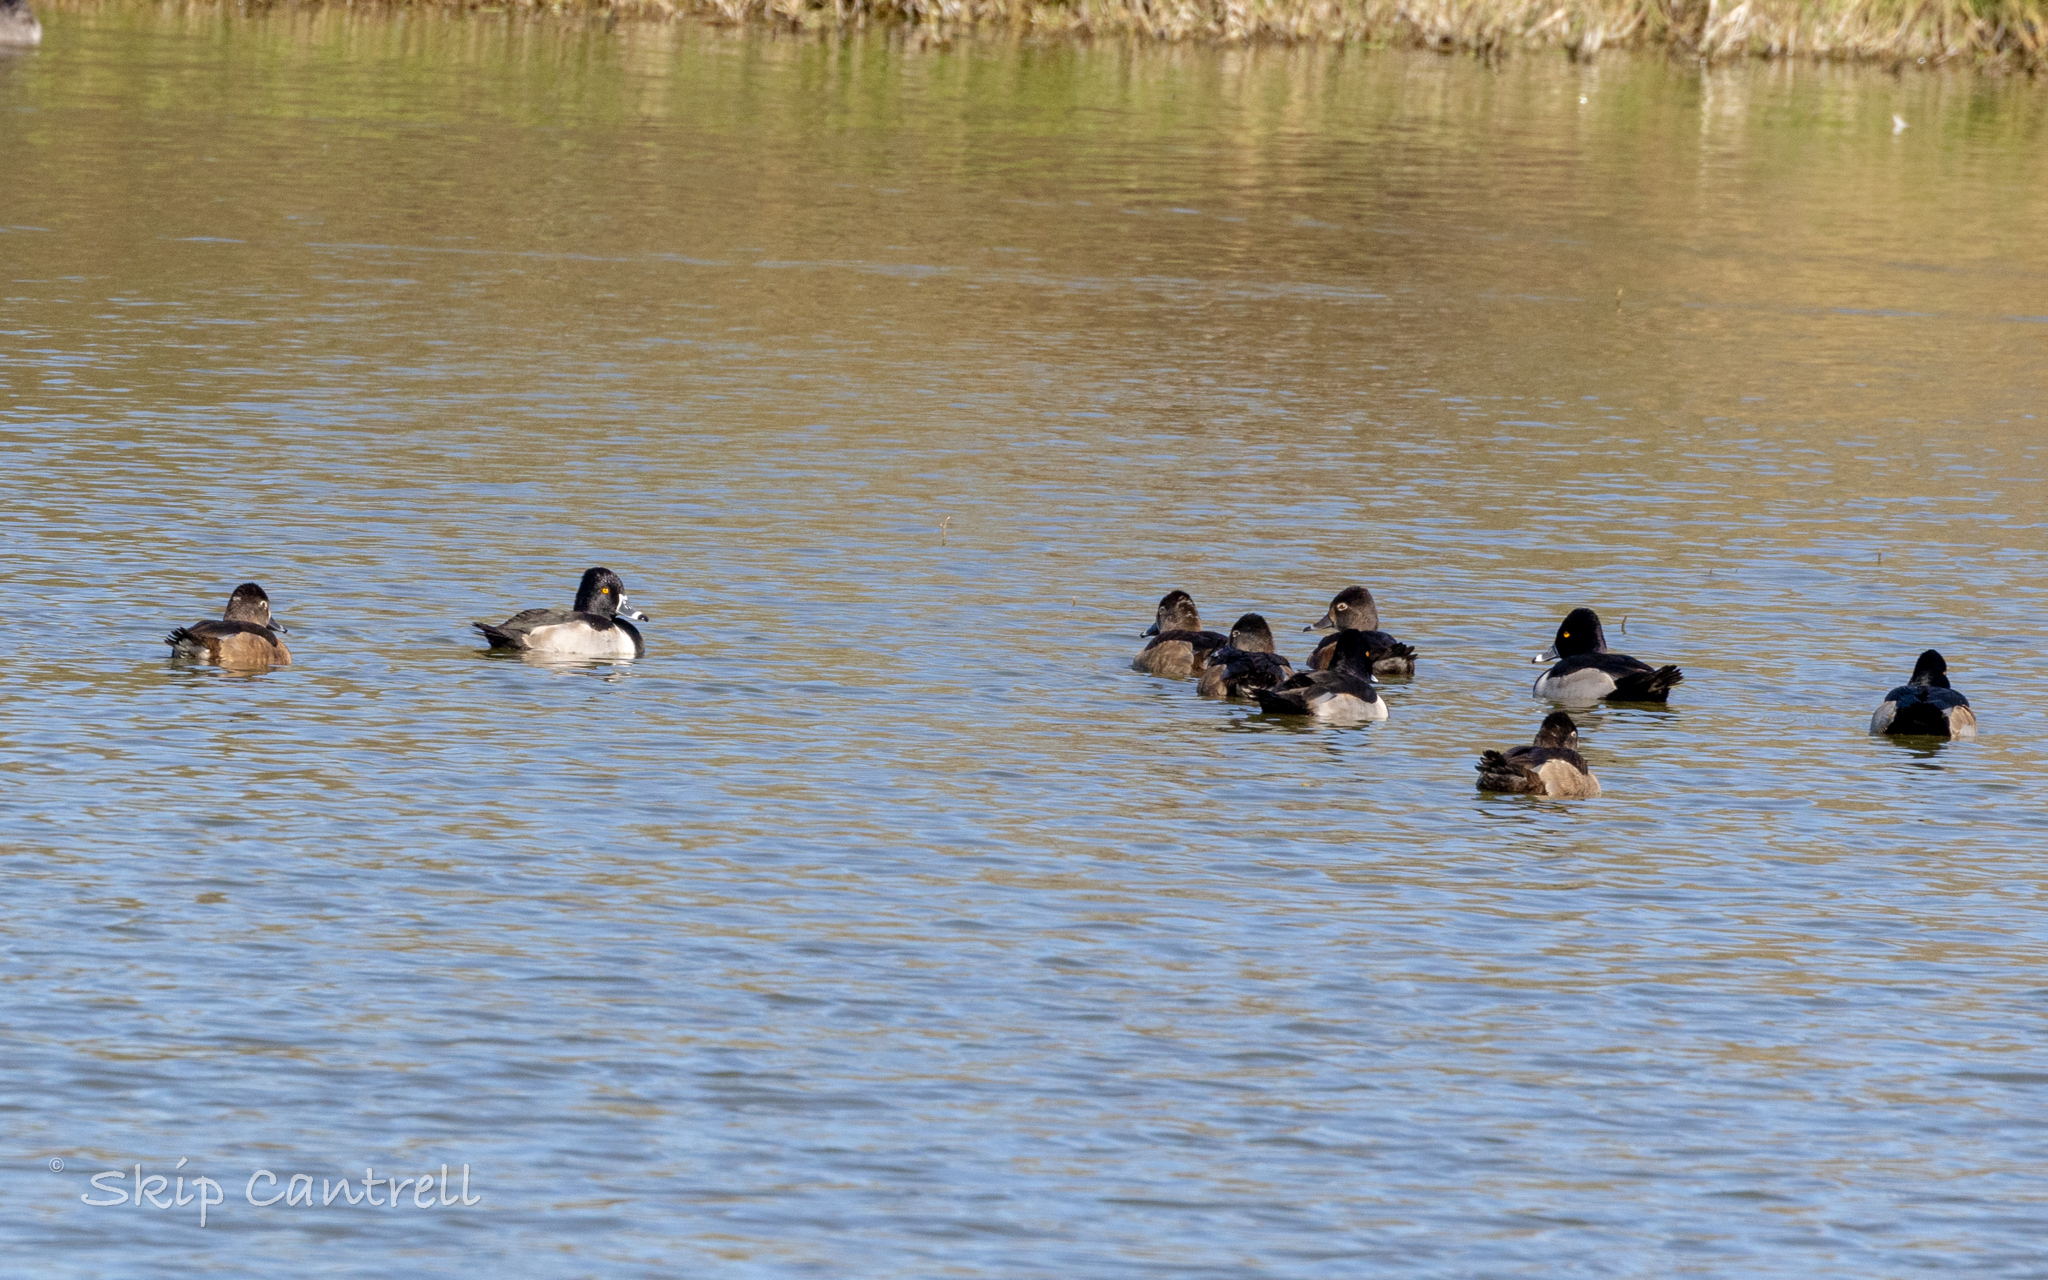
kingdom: Animalia
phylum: Chordata
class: Aves
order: Anseriformes
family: Anatidae
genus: Aythya
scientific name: Aythya collaris
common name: Ring-necked duck
